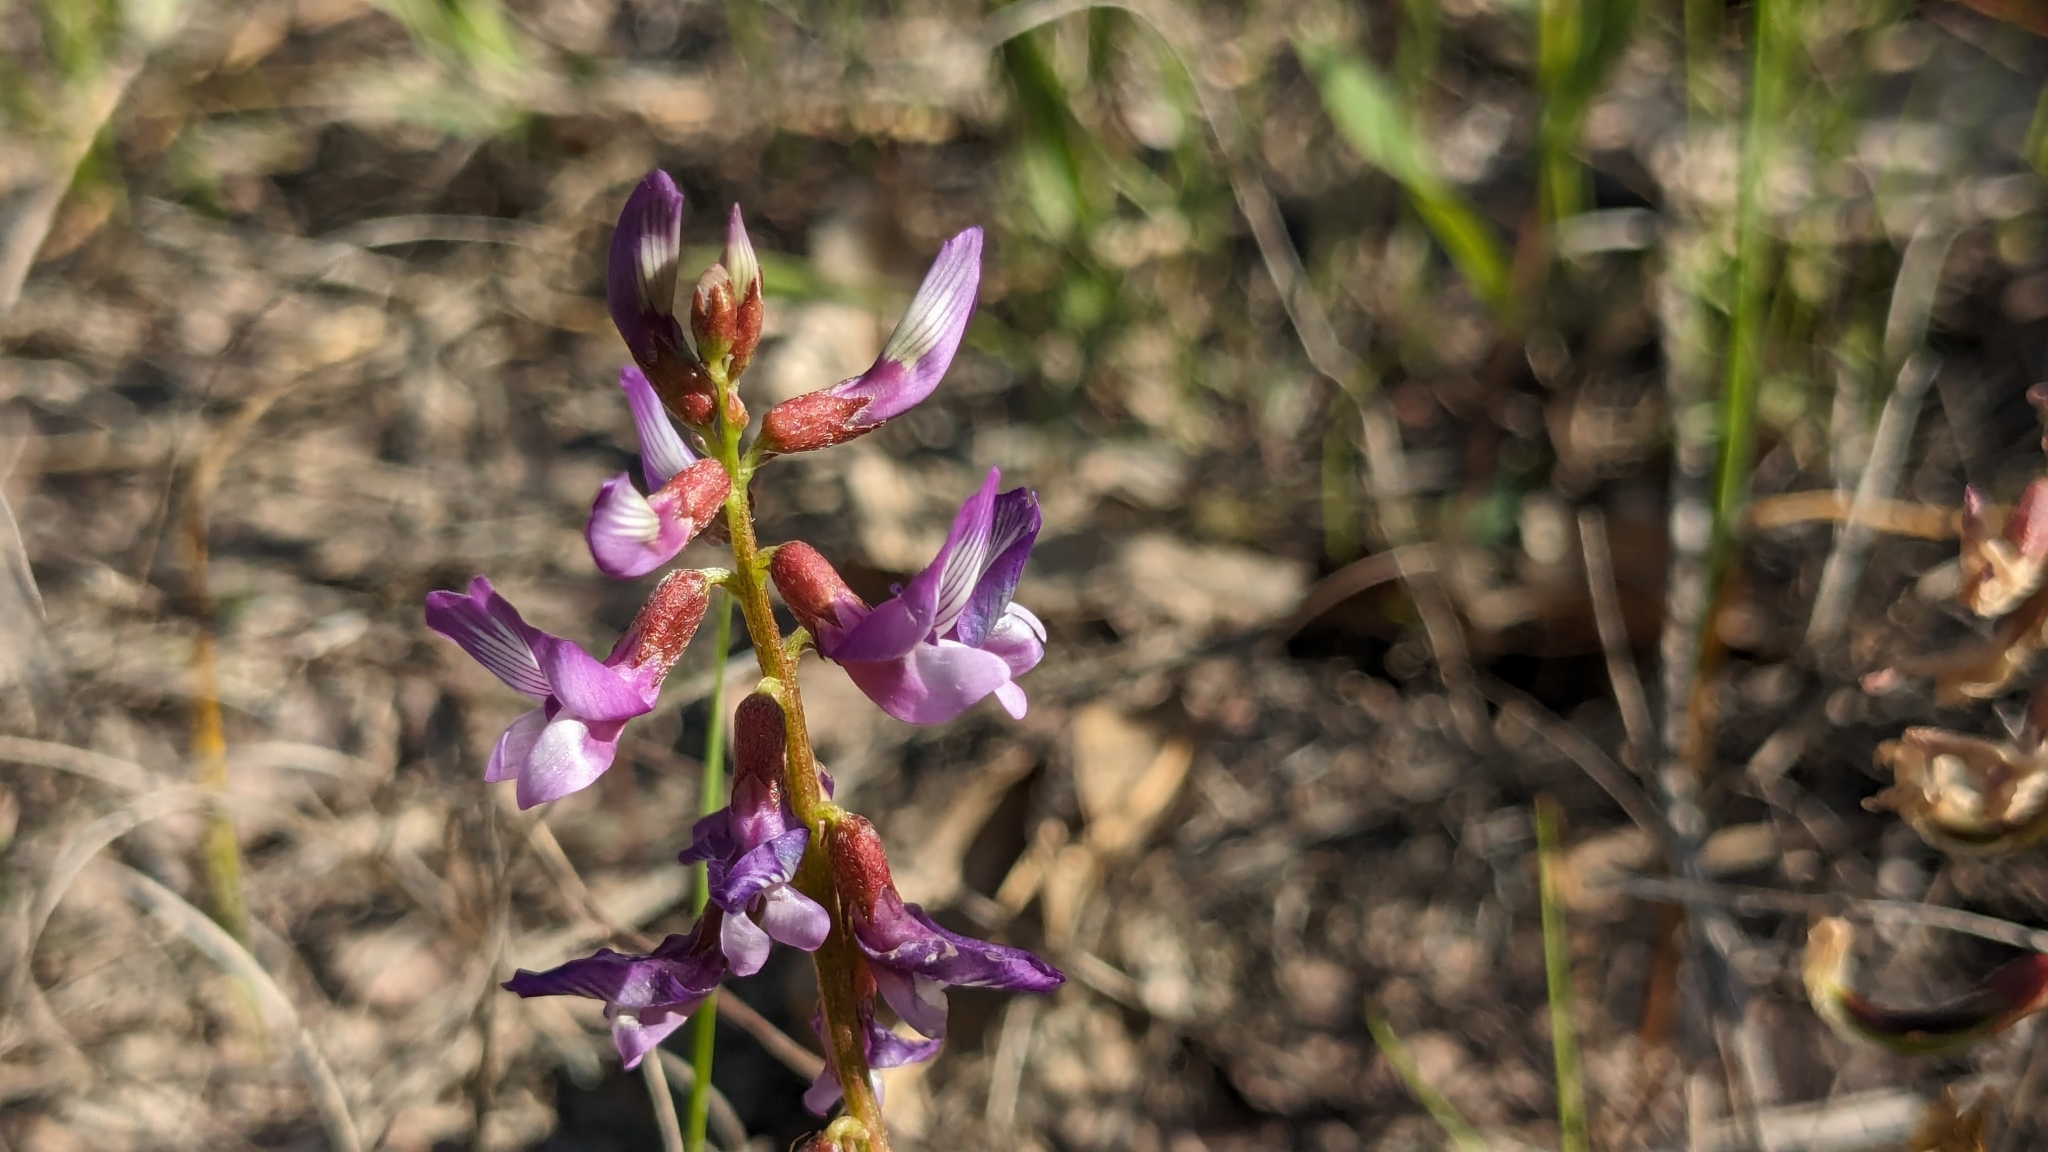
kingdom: Plantae
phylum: Tracheophyta
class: Magnoliopsida
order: Fabales
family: Fabaceae
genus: Astragalus
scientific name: Astragalus distortus
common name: Ozark milk-vetch
